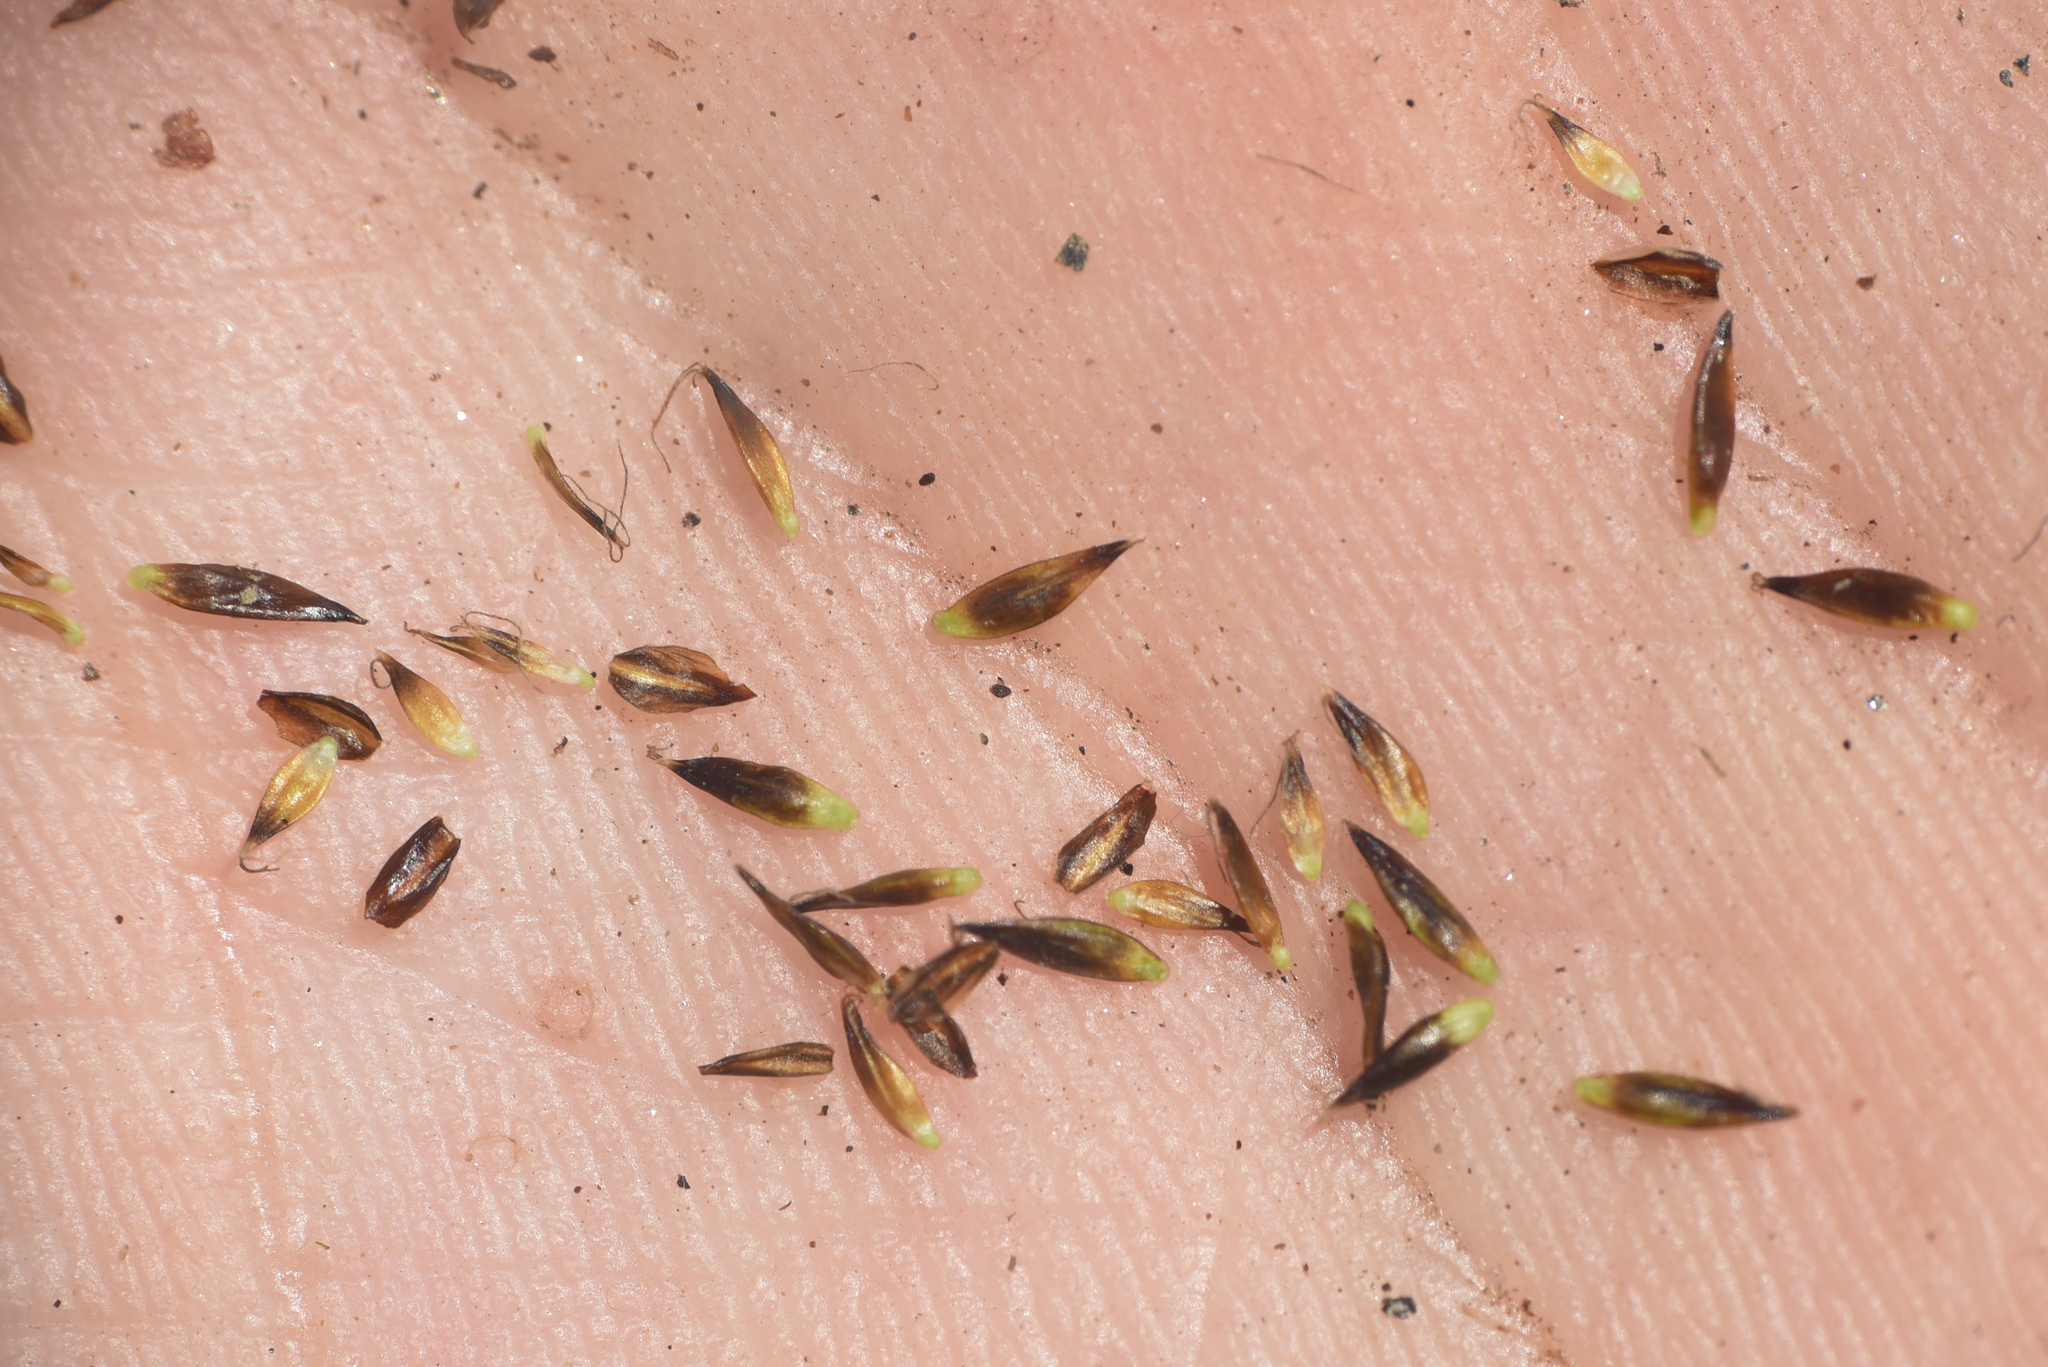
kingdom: Plantae
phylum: Tracheophyta
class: Liliopsida
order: Poales
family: Cyperaceae
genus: Carex
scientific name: Carex nigricans
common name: Black alpine sedge
